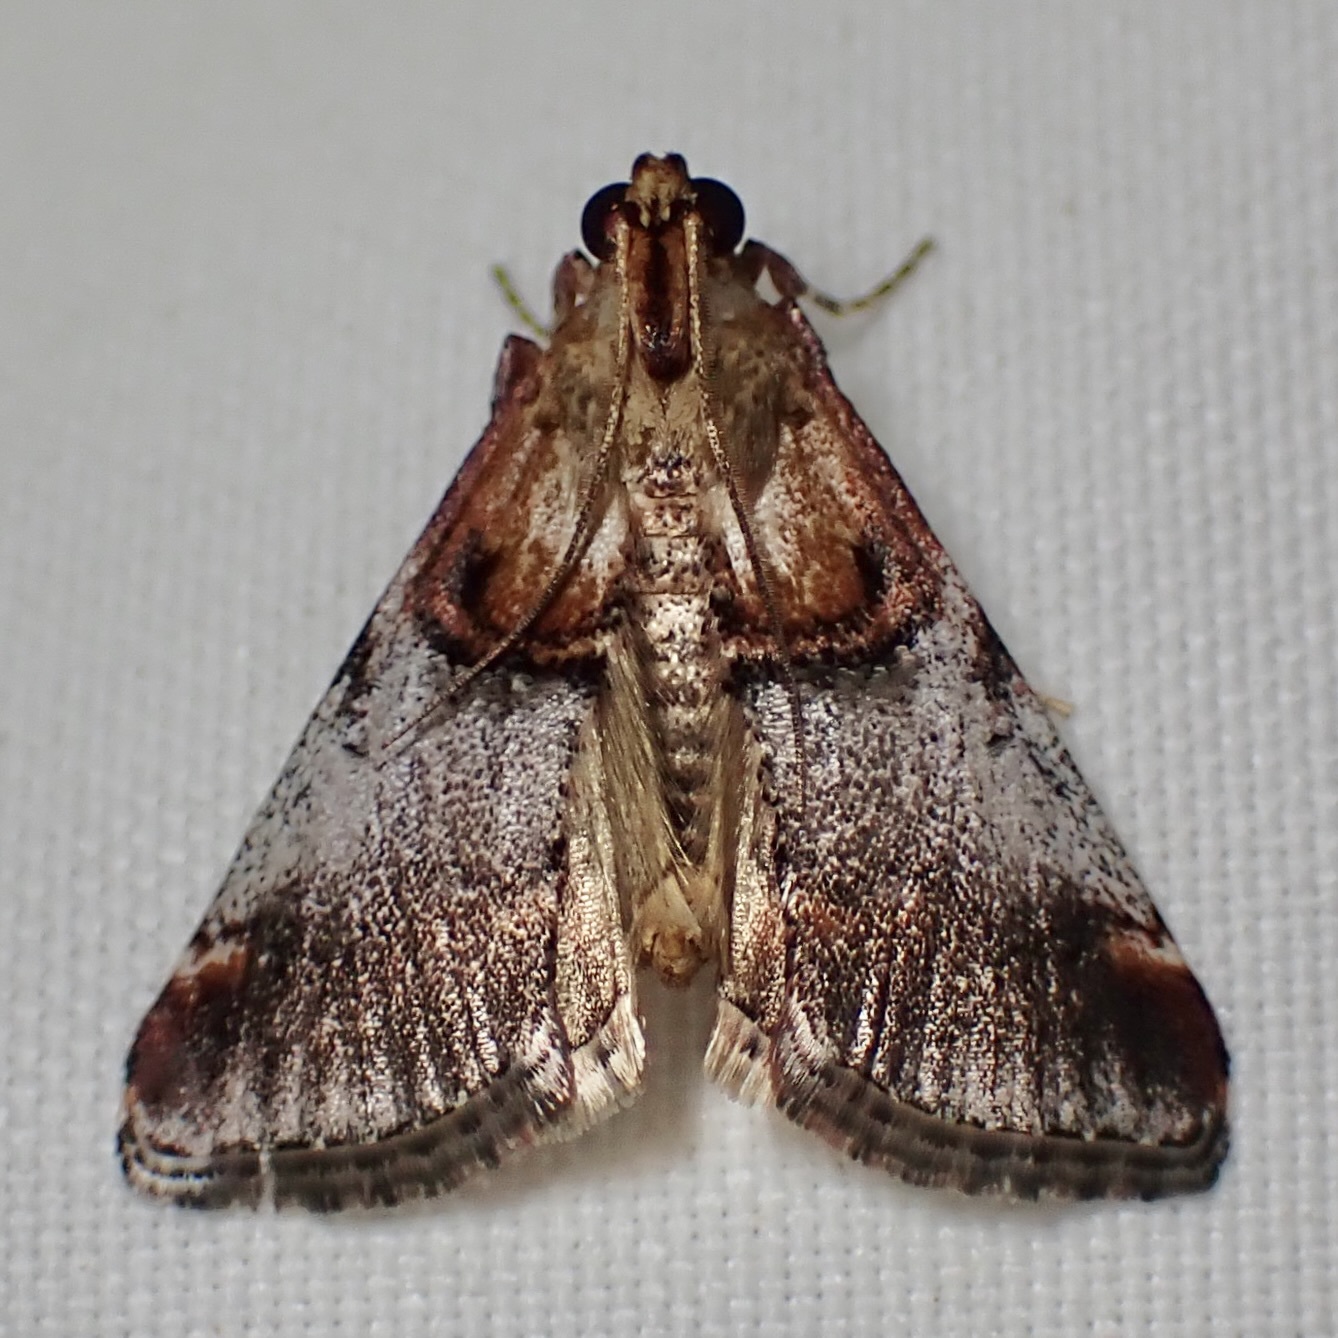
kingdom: Animalia
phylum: Arthropoda
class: Insecta
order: Lepidoptera
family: Pyralidae
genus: Cacozelia
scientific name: Cacozelia basiochrealis
